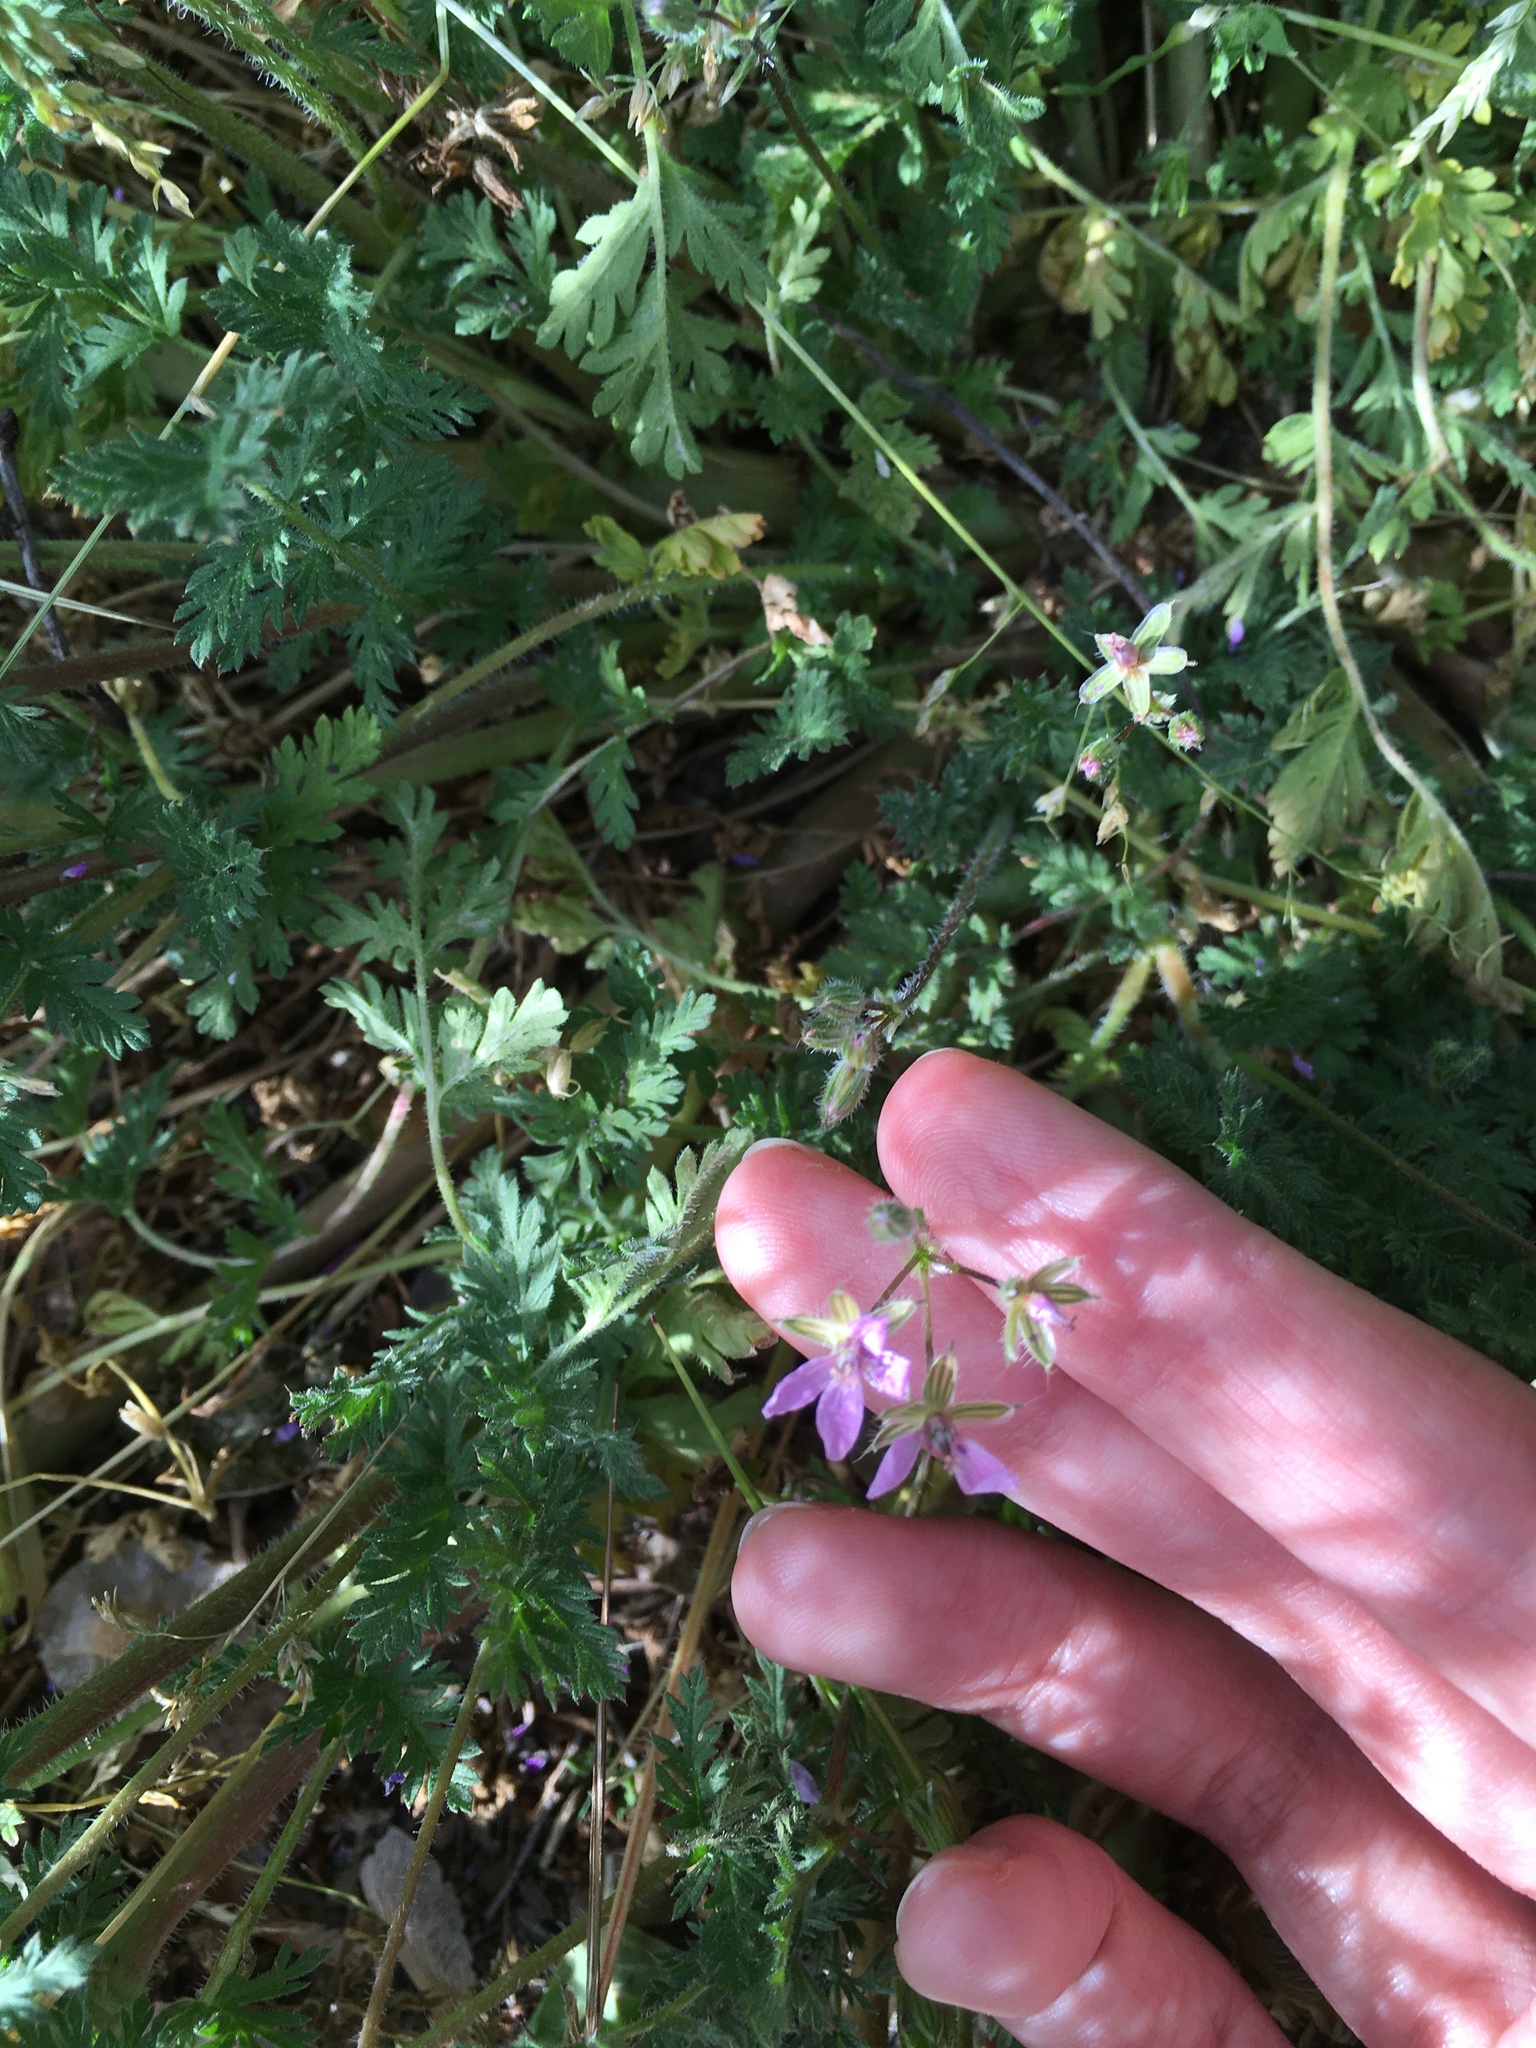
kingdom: Plantae
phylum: Tracheophyta
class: Magnoliopsida
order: Geraniales
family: Geraniaceae
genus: Erodium
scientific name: Erodium cicutarium
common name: Common stork's-bill
